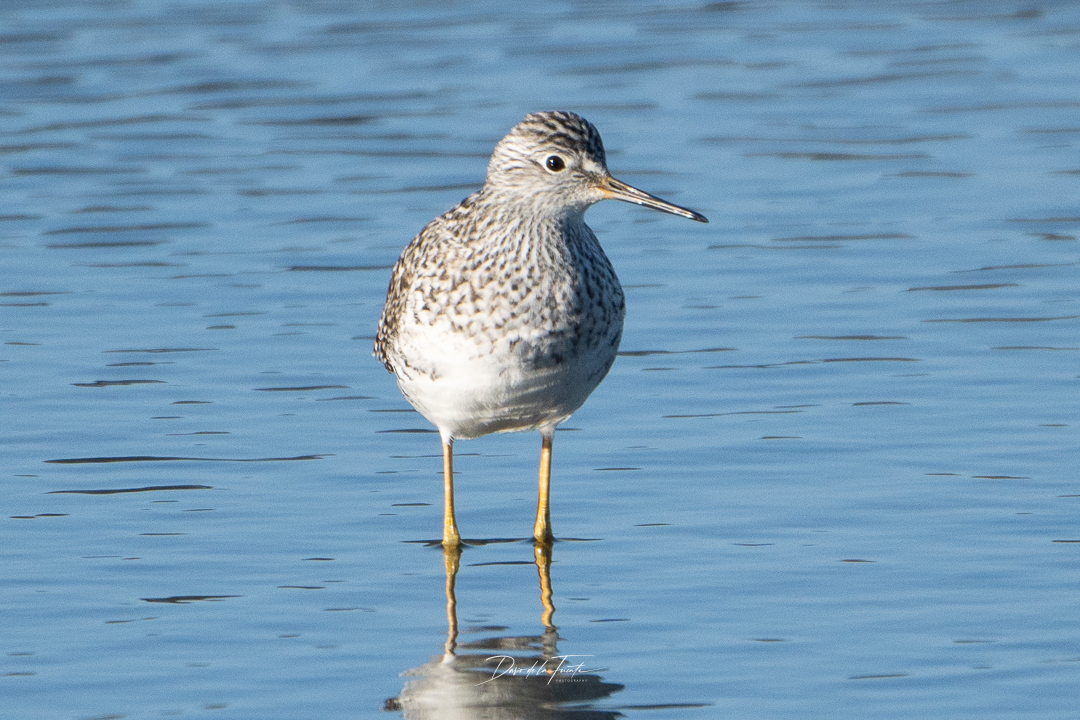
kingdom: Animalia
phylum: Chordata
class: Aves
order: Charadriiformes
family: Scolopacidae
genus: Tringa
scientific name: Tringa flavipes
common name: Lesser yellowlegs
